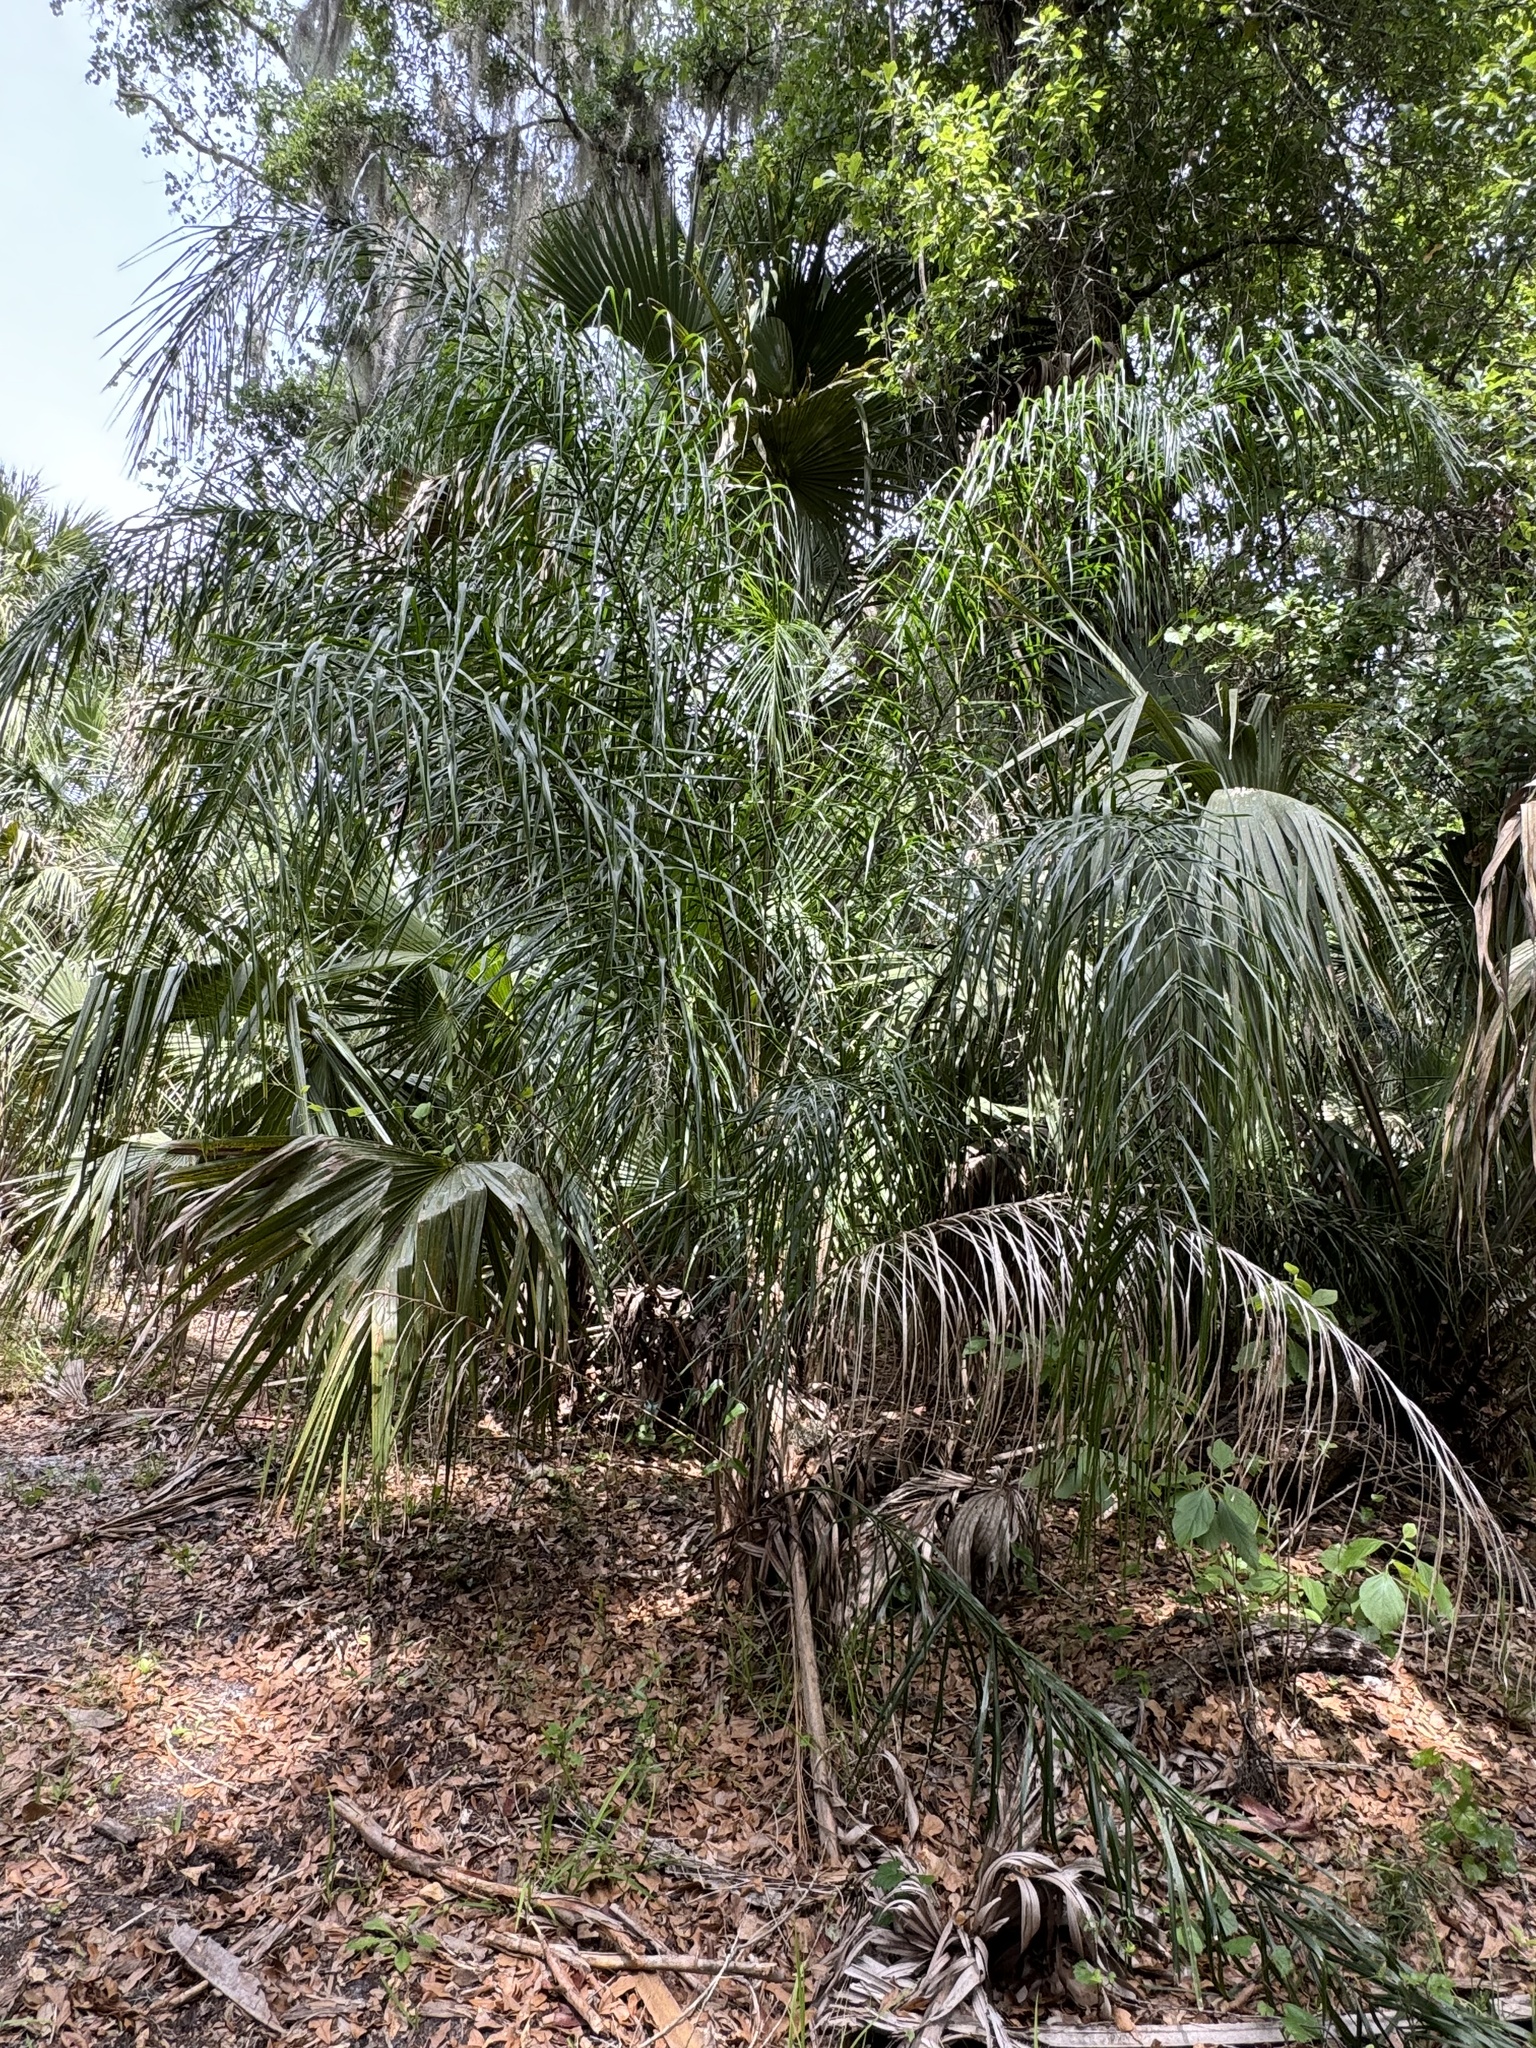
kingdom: Plantae
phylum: Tracheophyta
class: Liliopsida
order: Arecales
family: Arecaceae
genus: Syagrus
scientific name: Syagrus romanzoffiana
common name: Queen palm
